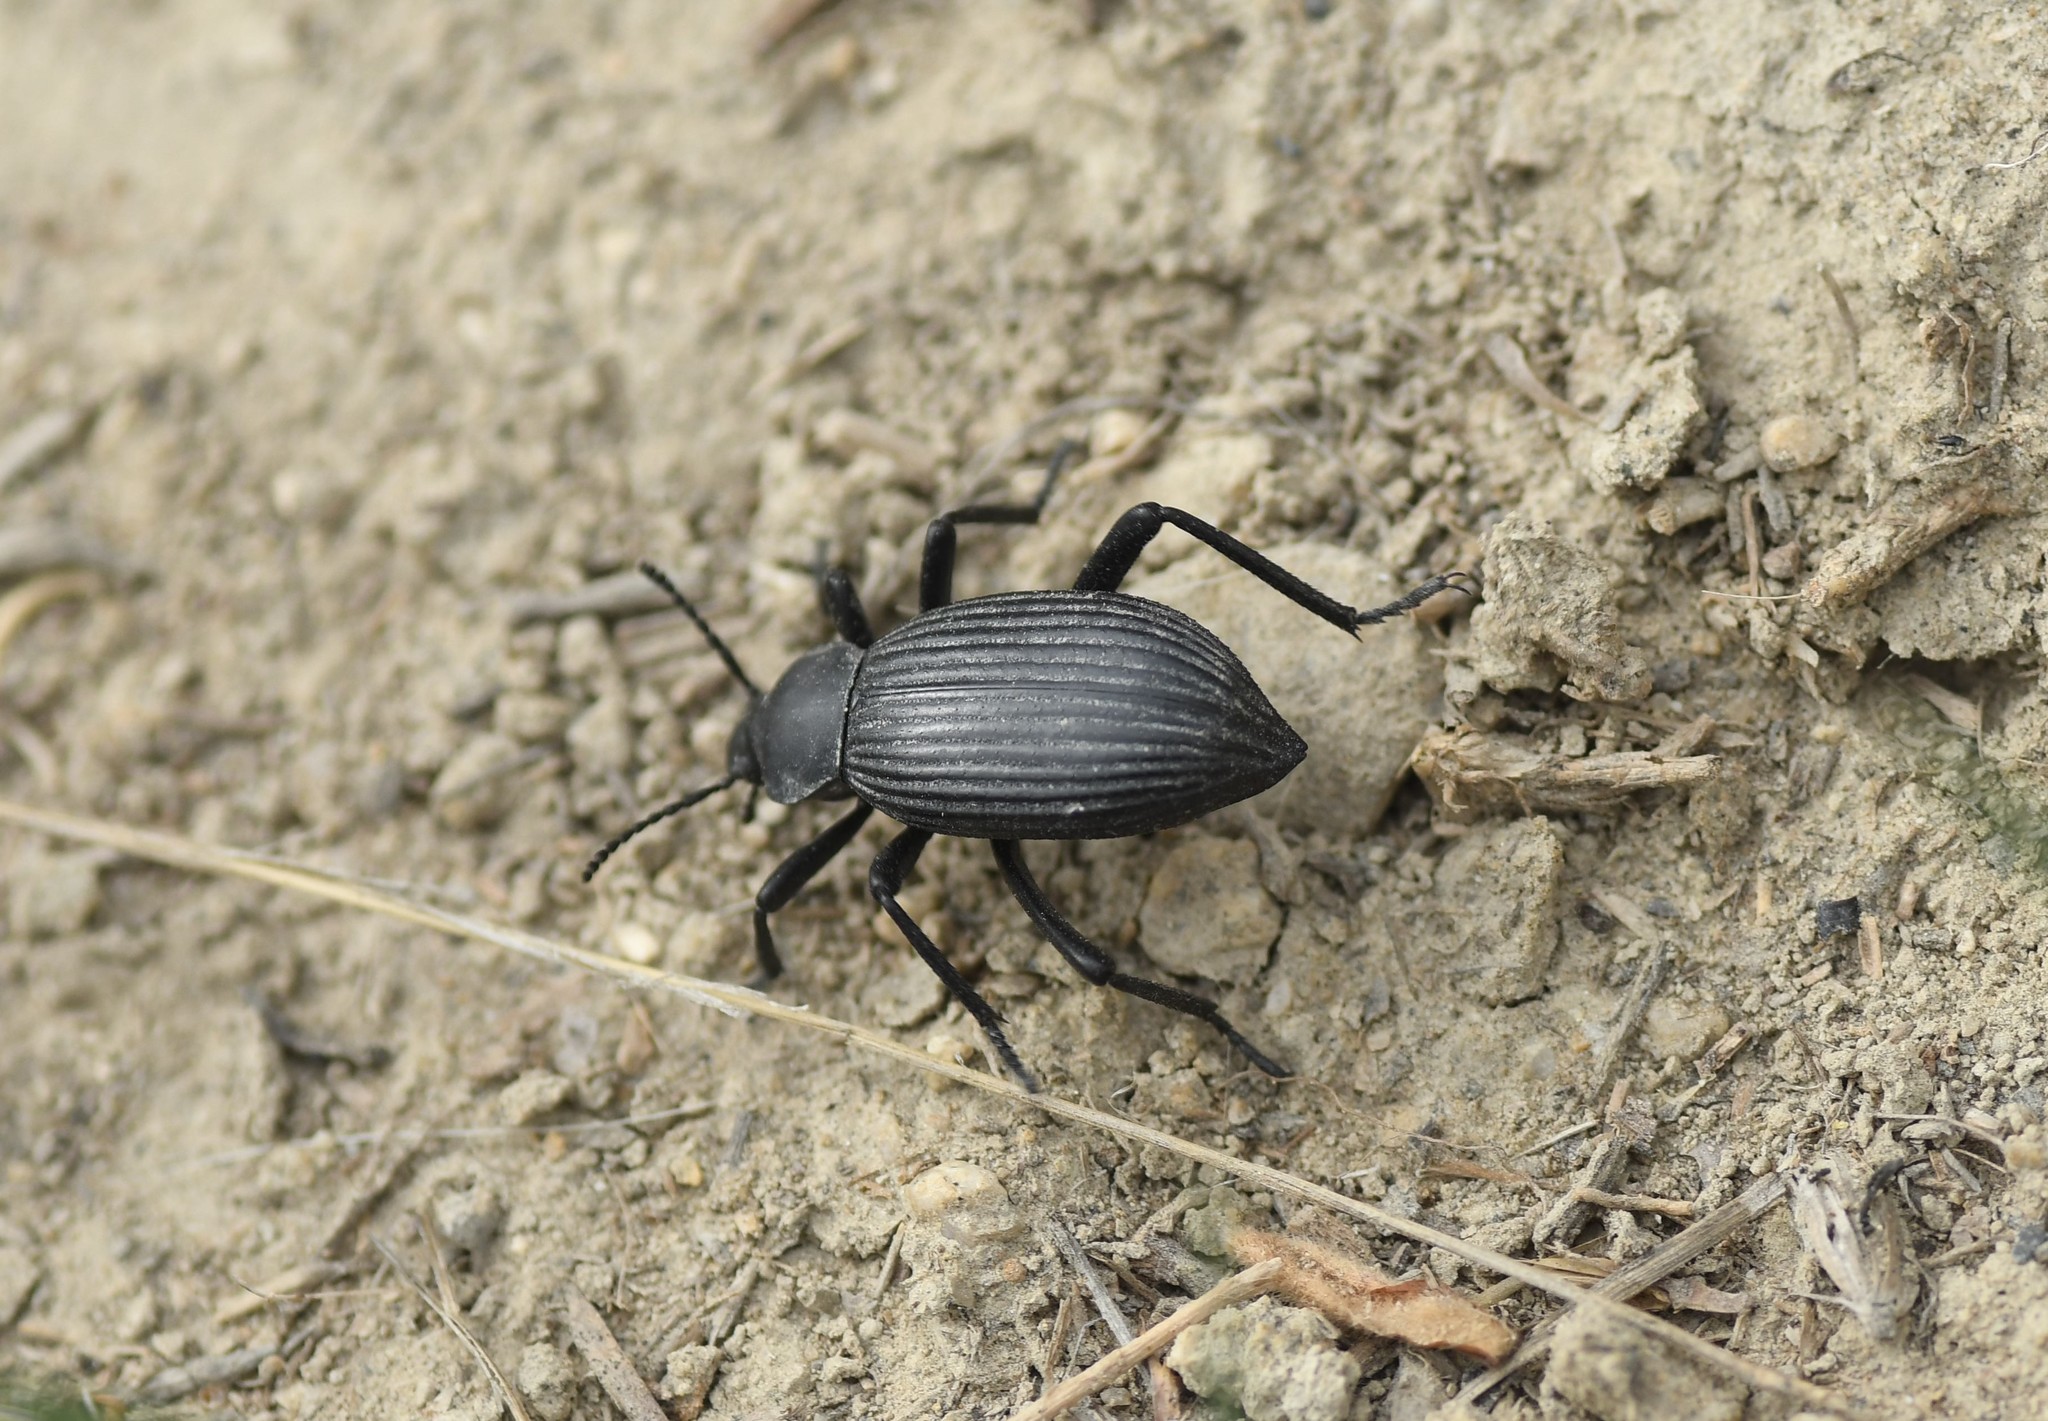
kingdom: Animalia
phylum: Arthropoda
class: Insecta
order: Coleoptera
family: Tenebrionidae
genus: Eleodes
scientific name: Eleodes hispilabris
